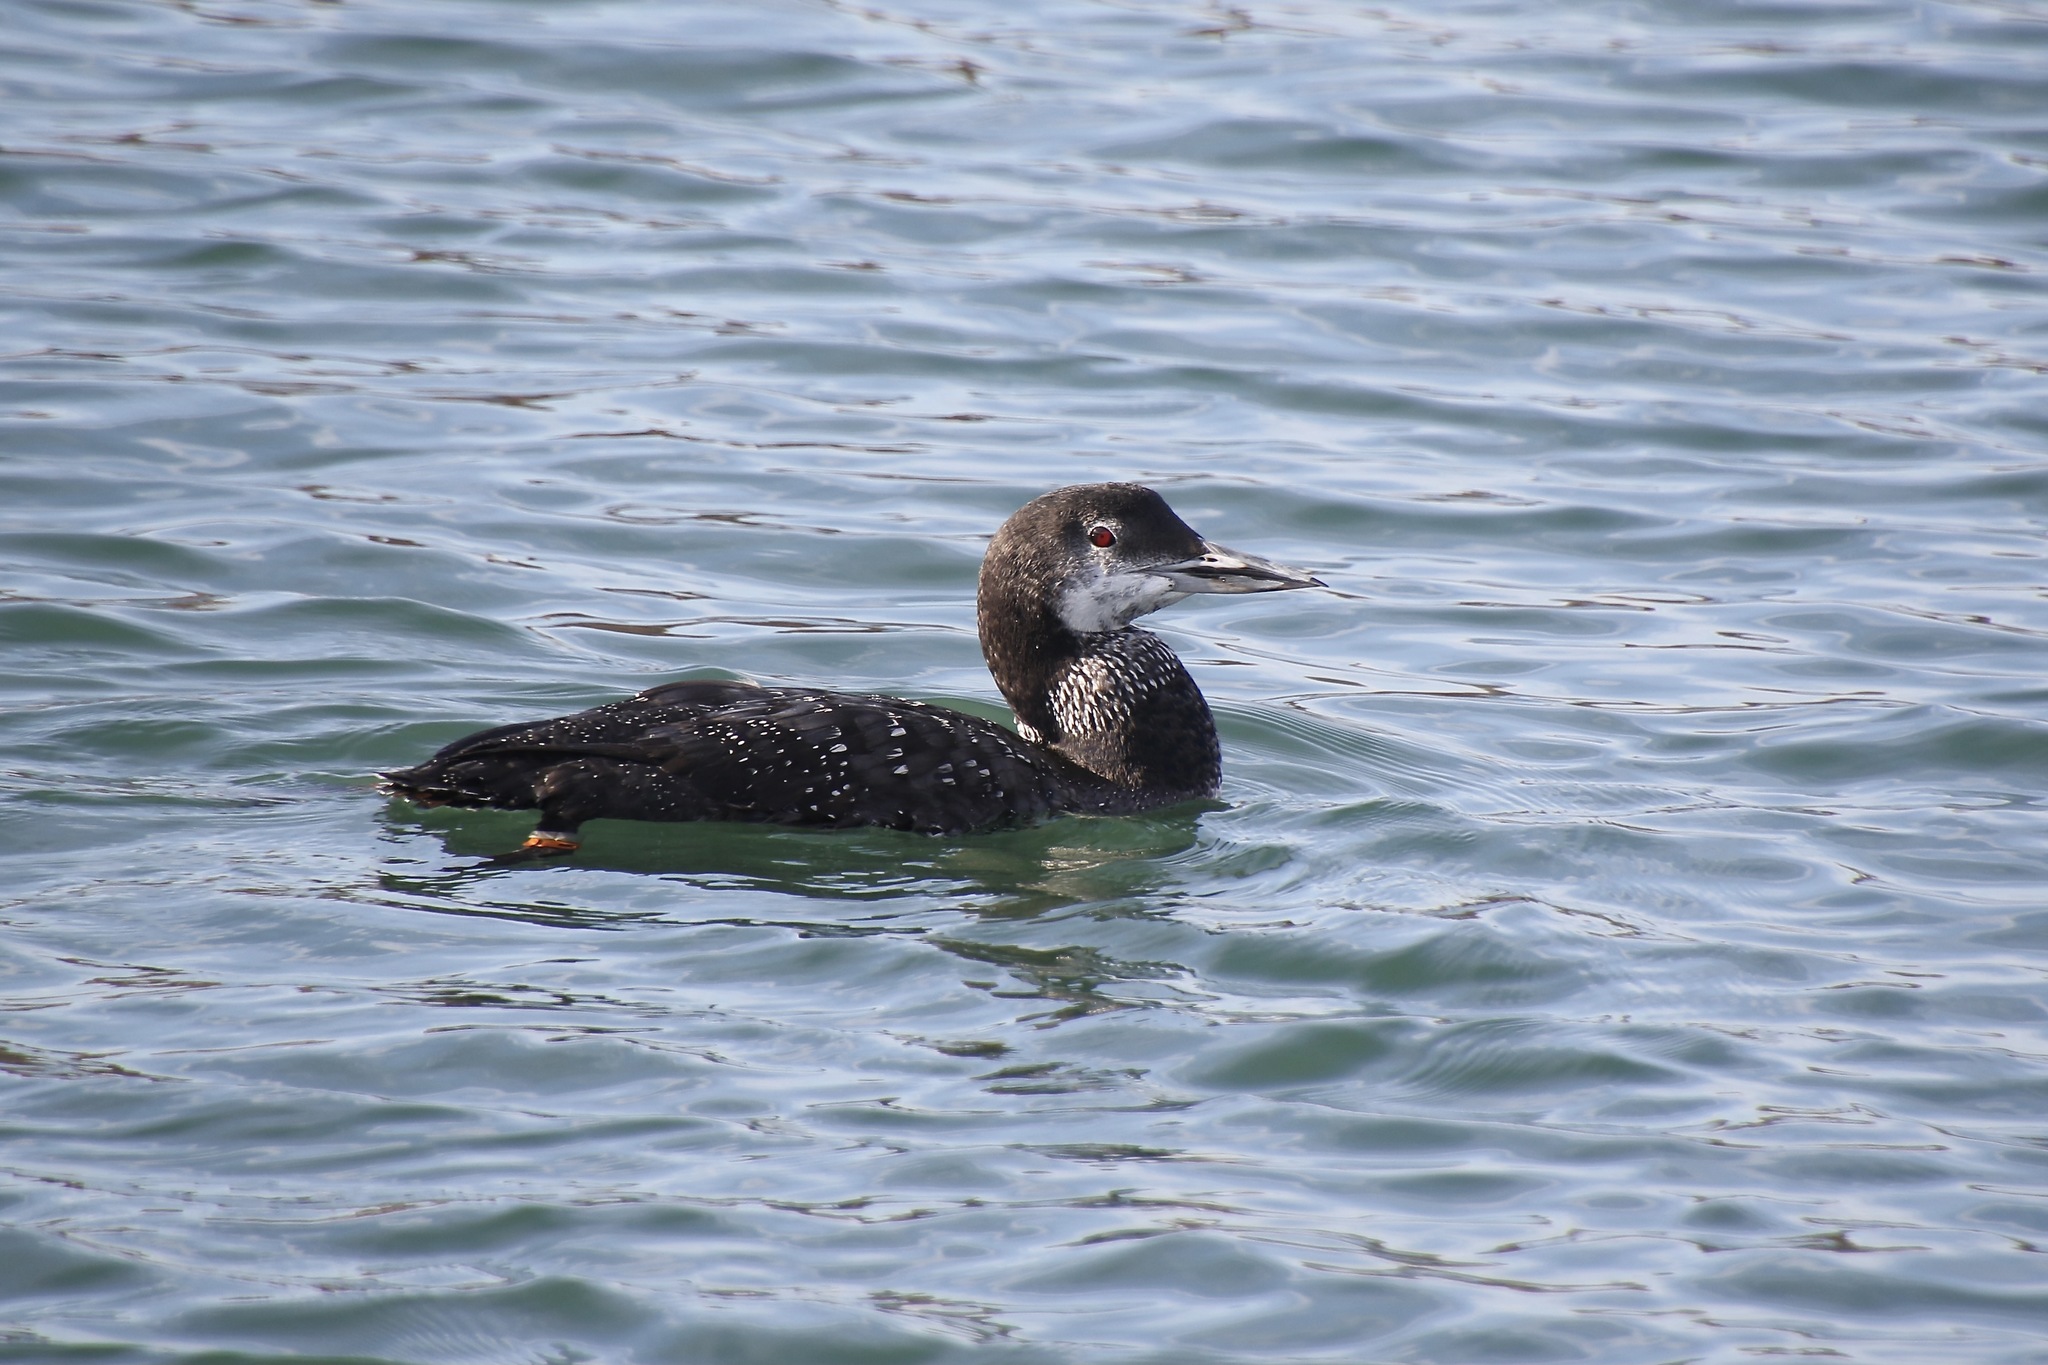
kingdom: Animalia
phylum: Chordata
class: Aves
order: Gaviiformes
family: Gaviidae
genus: Gavia
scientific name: Gavia immer
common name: Common loon
